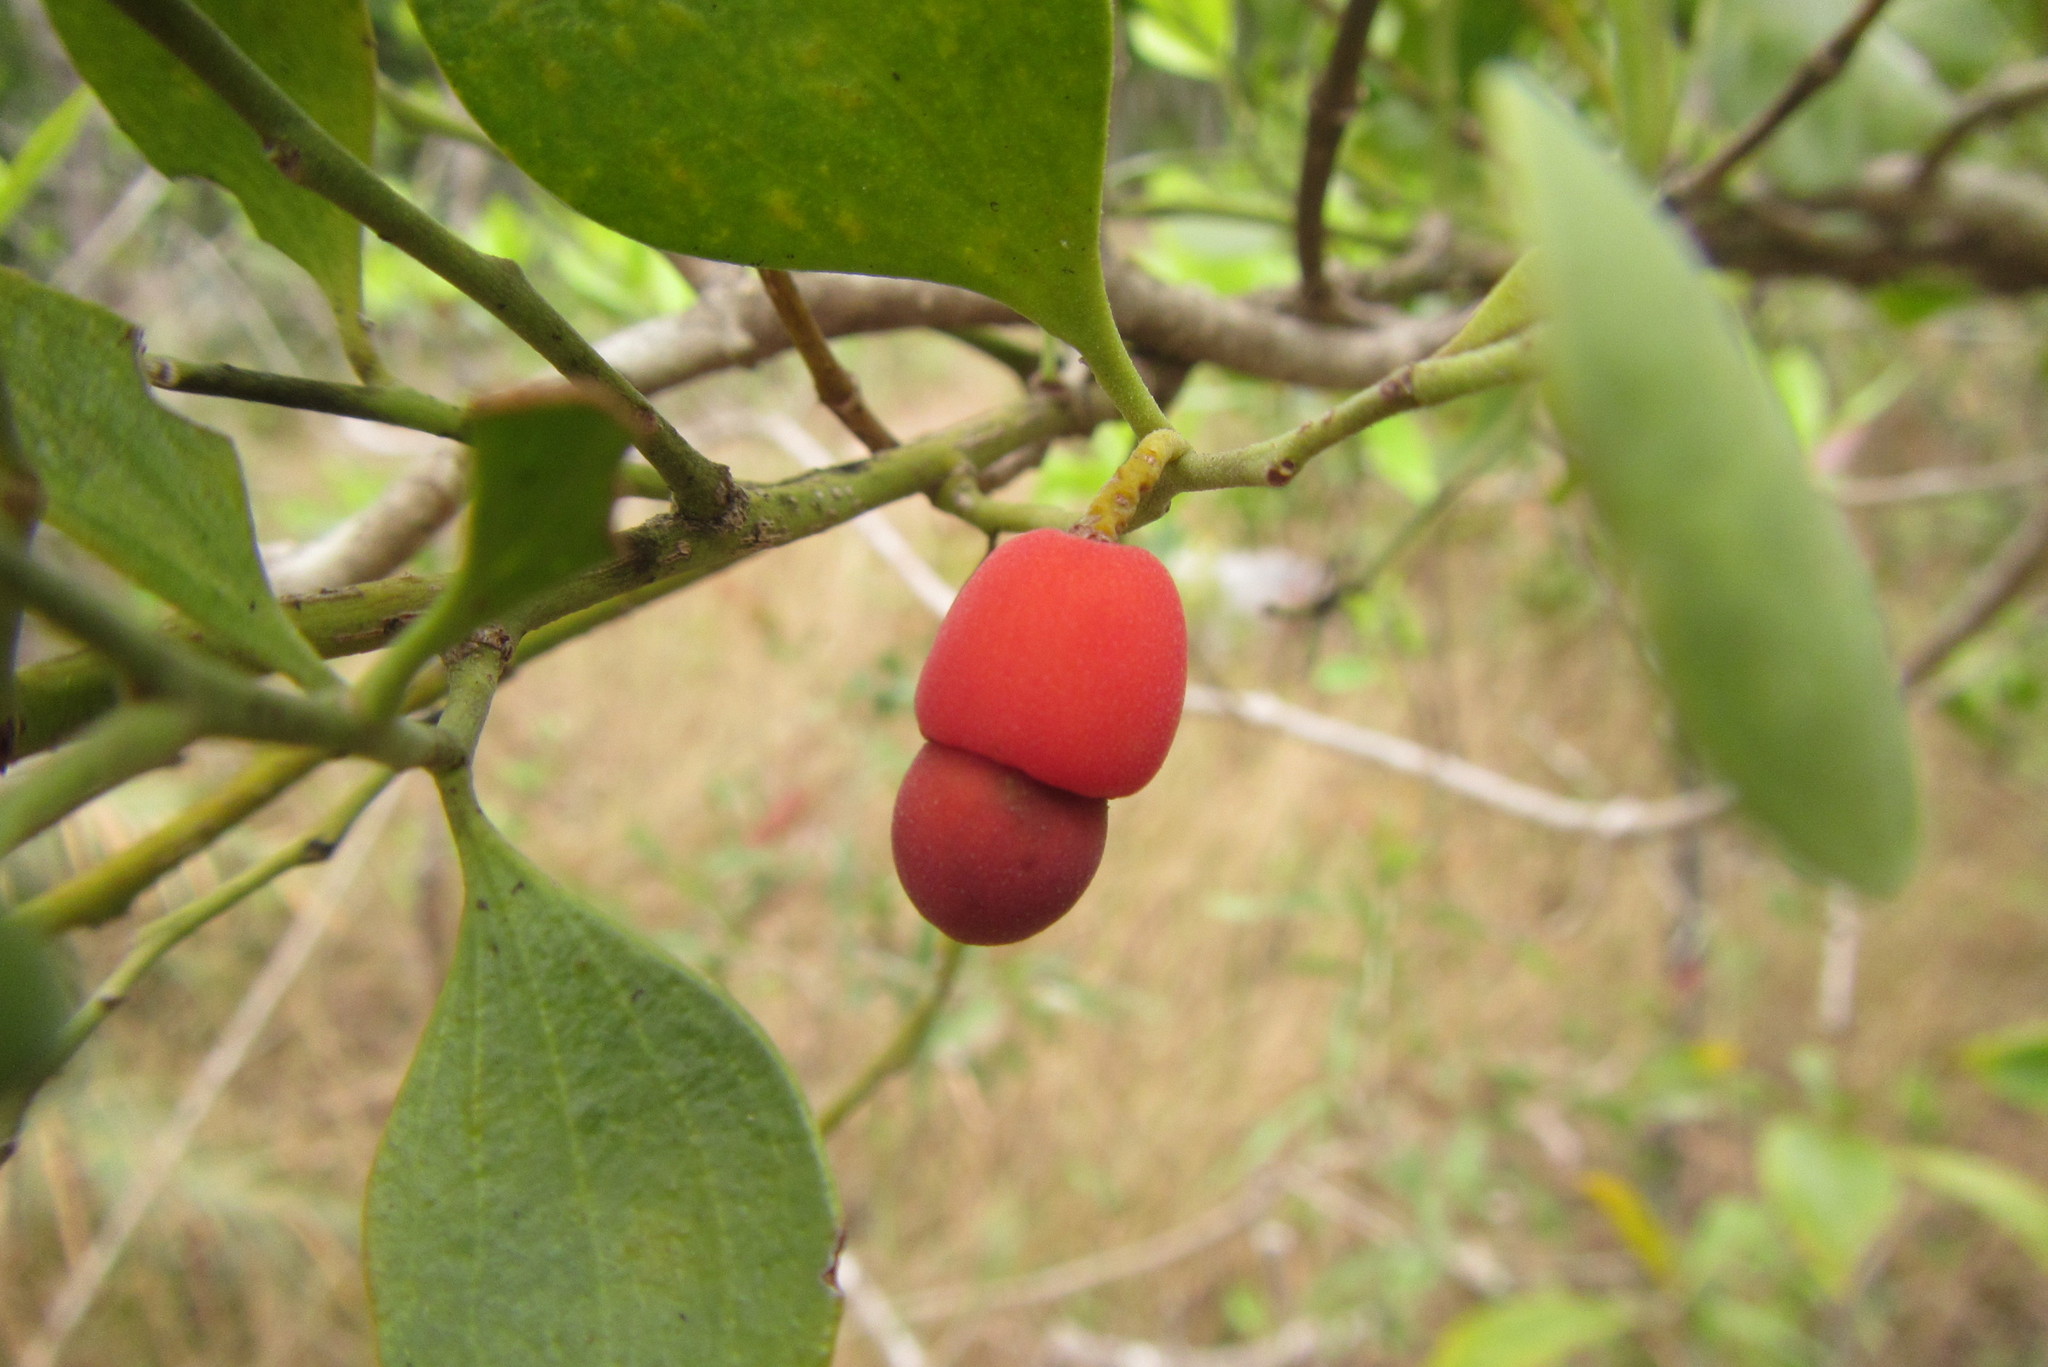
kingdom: Plantae
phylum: Tracheophyta
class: Magnoliopsida
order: Santalales
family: Santalaceae
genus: Exocarpos
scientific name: Exocarpos latifolius
